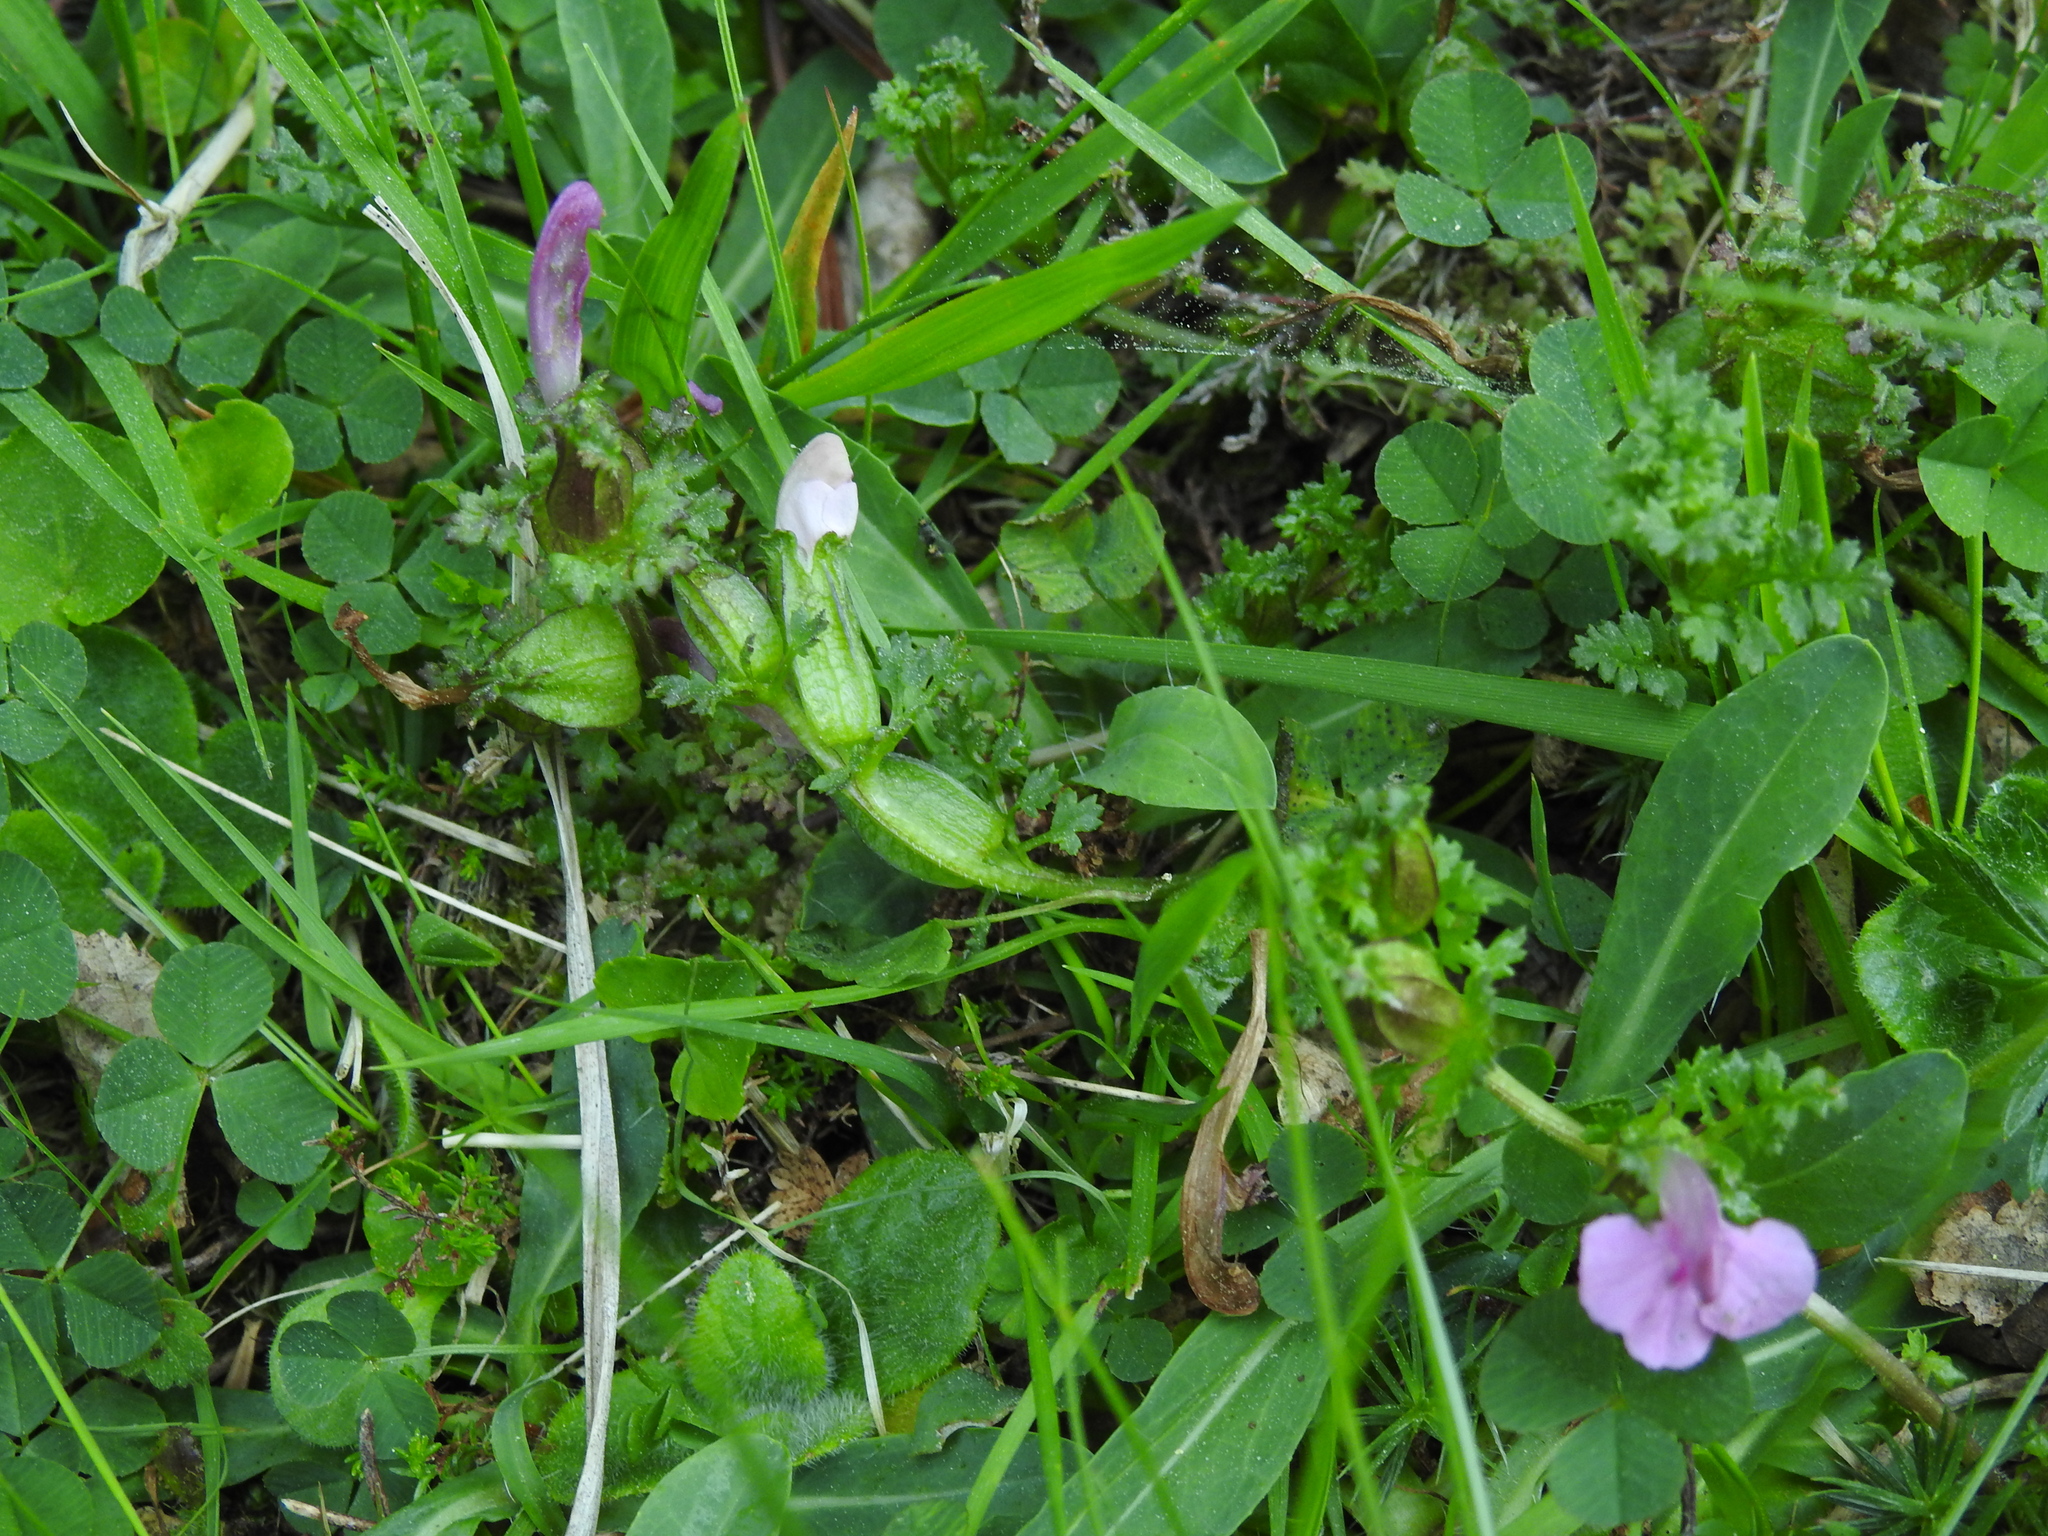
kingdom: Plantae
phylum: Tracheophyta
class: Magnoliopsida
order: Lamiales
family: Orobanchaceae
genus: Pedicularis
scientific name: Pedicularis sylvatica
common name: Lousewort
